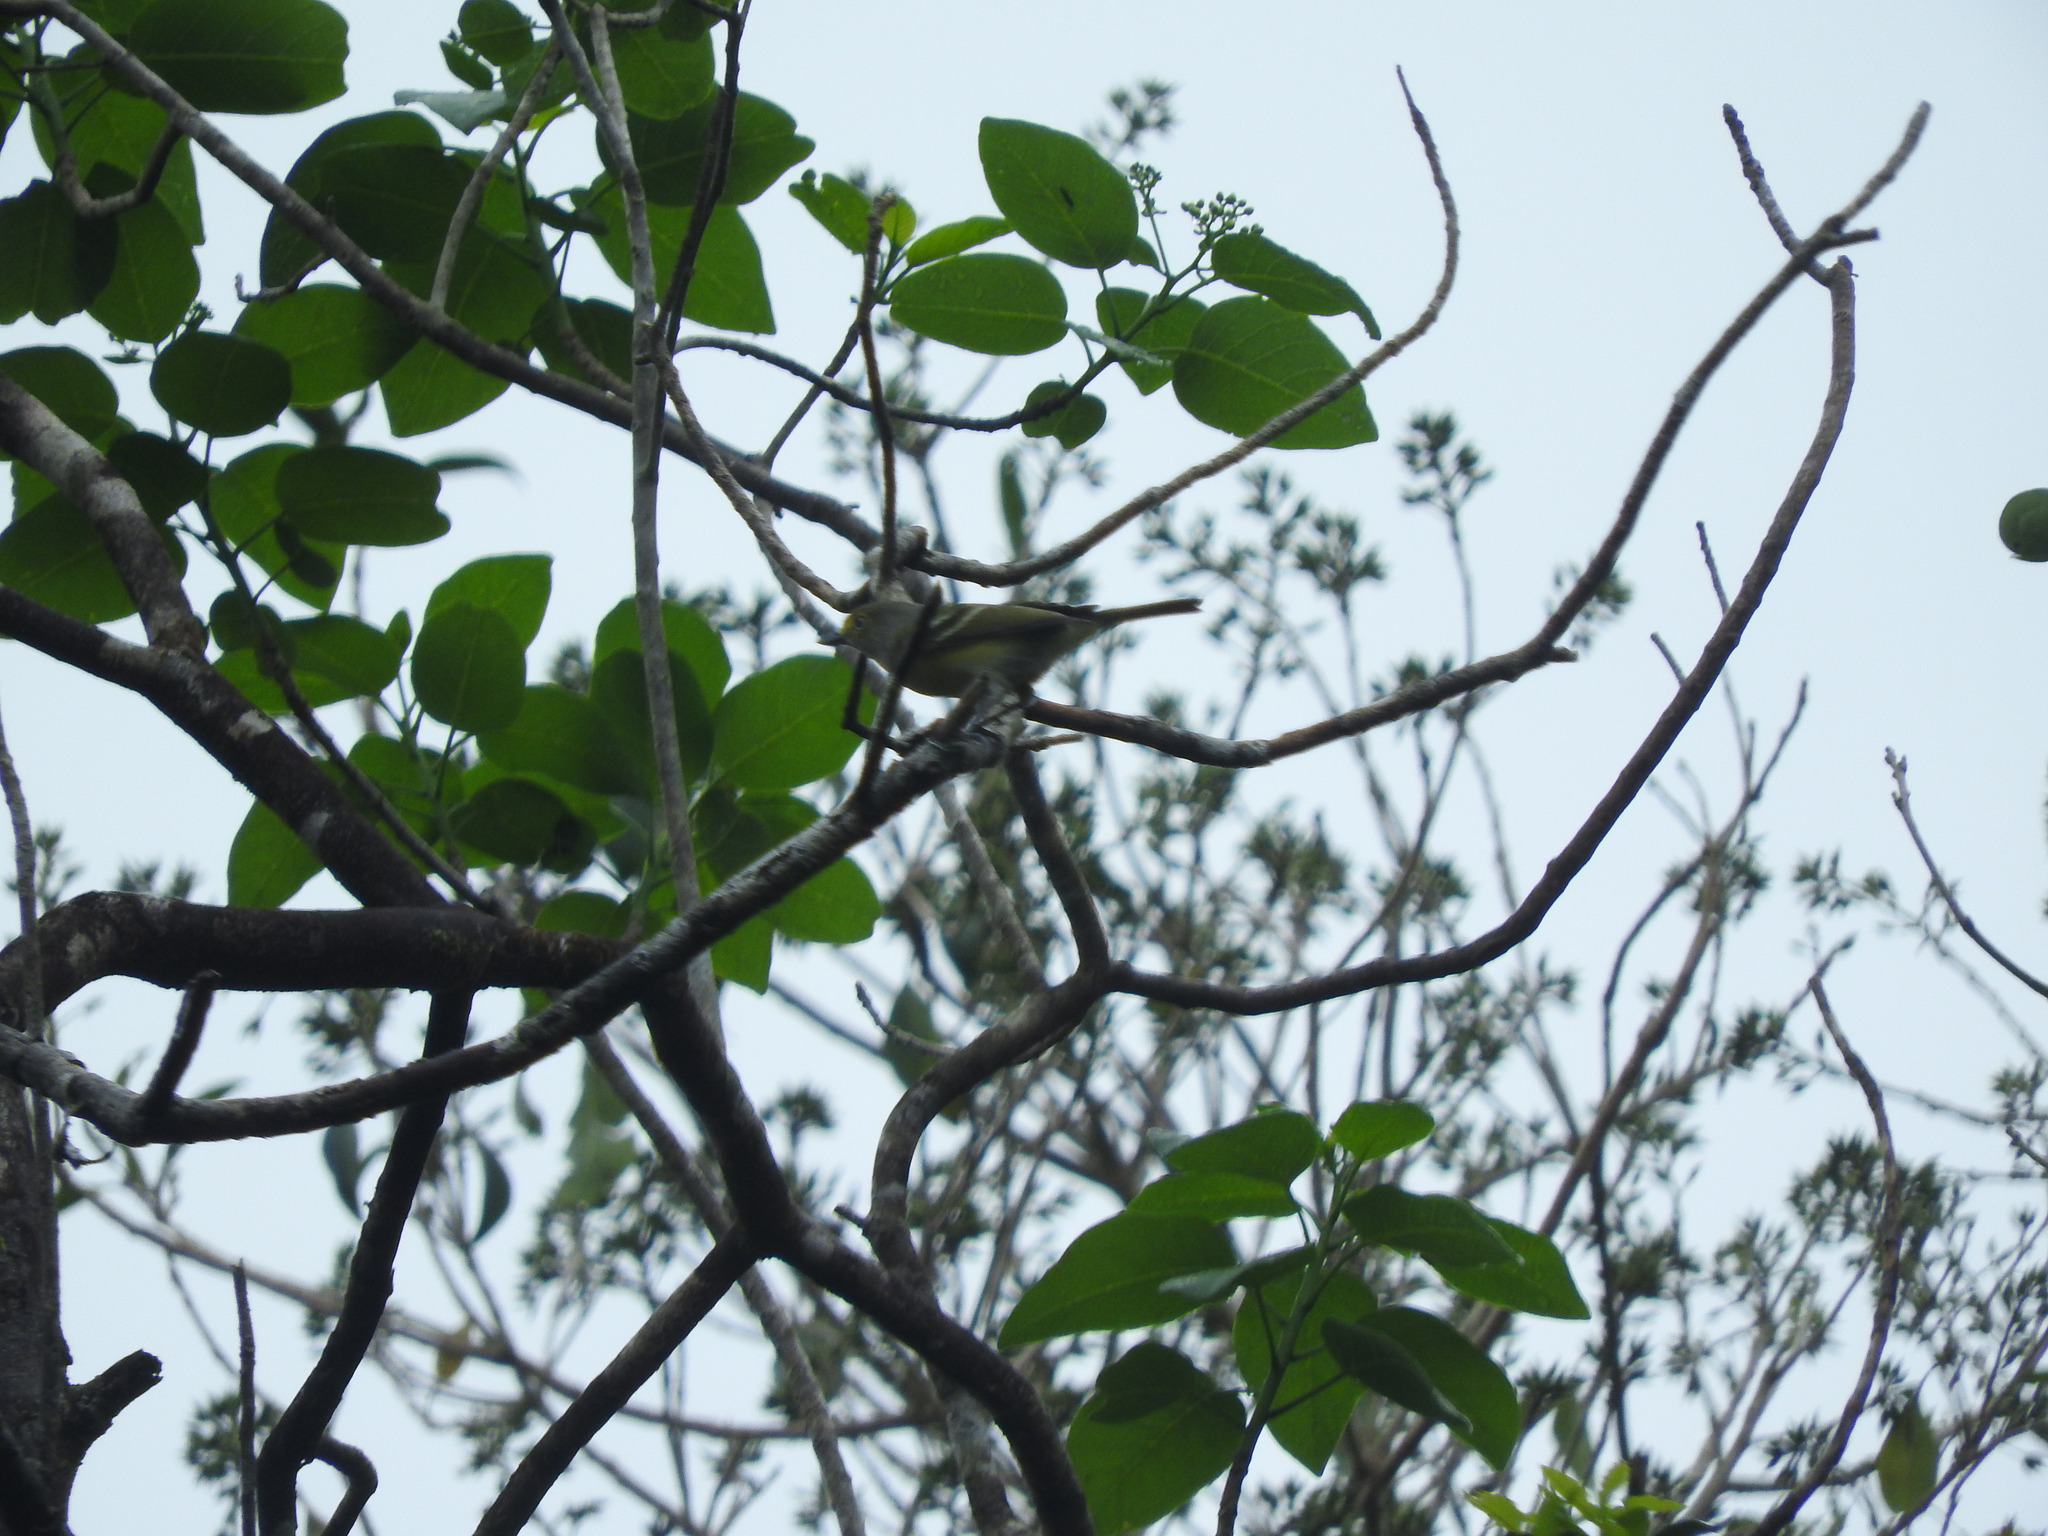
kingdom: Animalia
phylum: Chordata
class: Aves
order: Passeriformes
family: Vireonidae
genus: Vireo
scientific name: Vireo griseus
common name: White-eyed vireo
